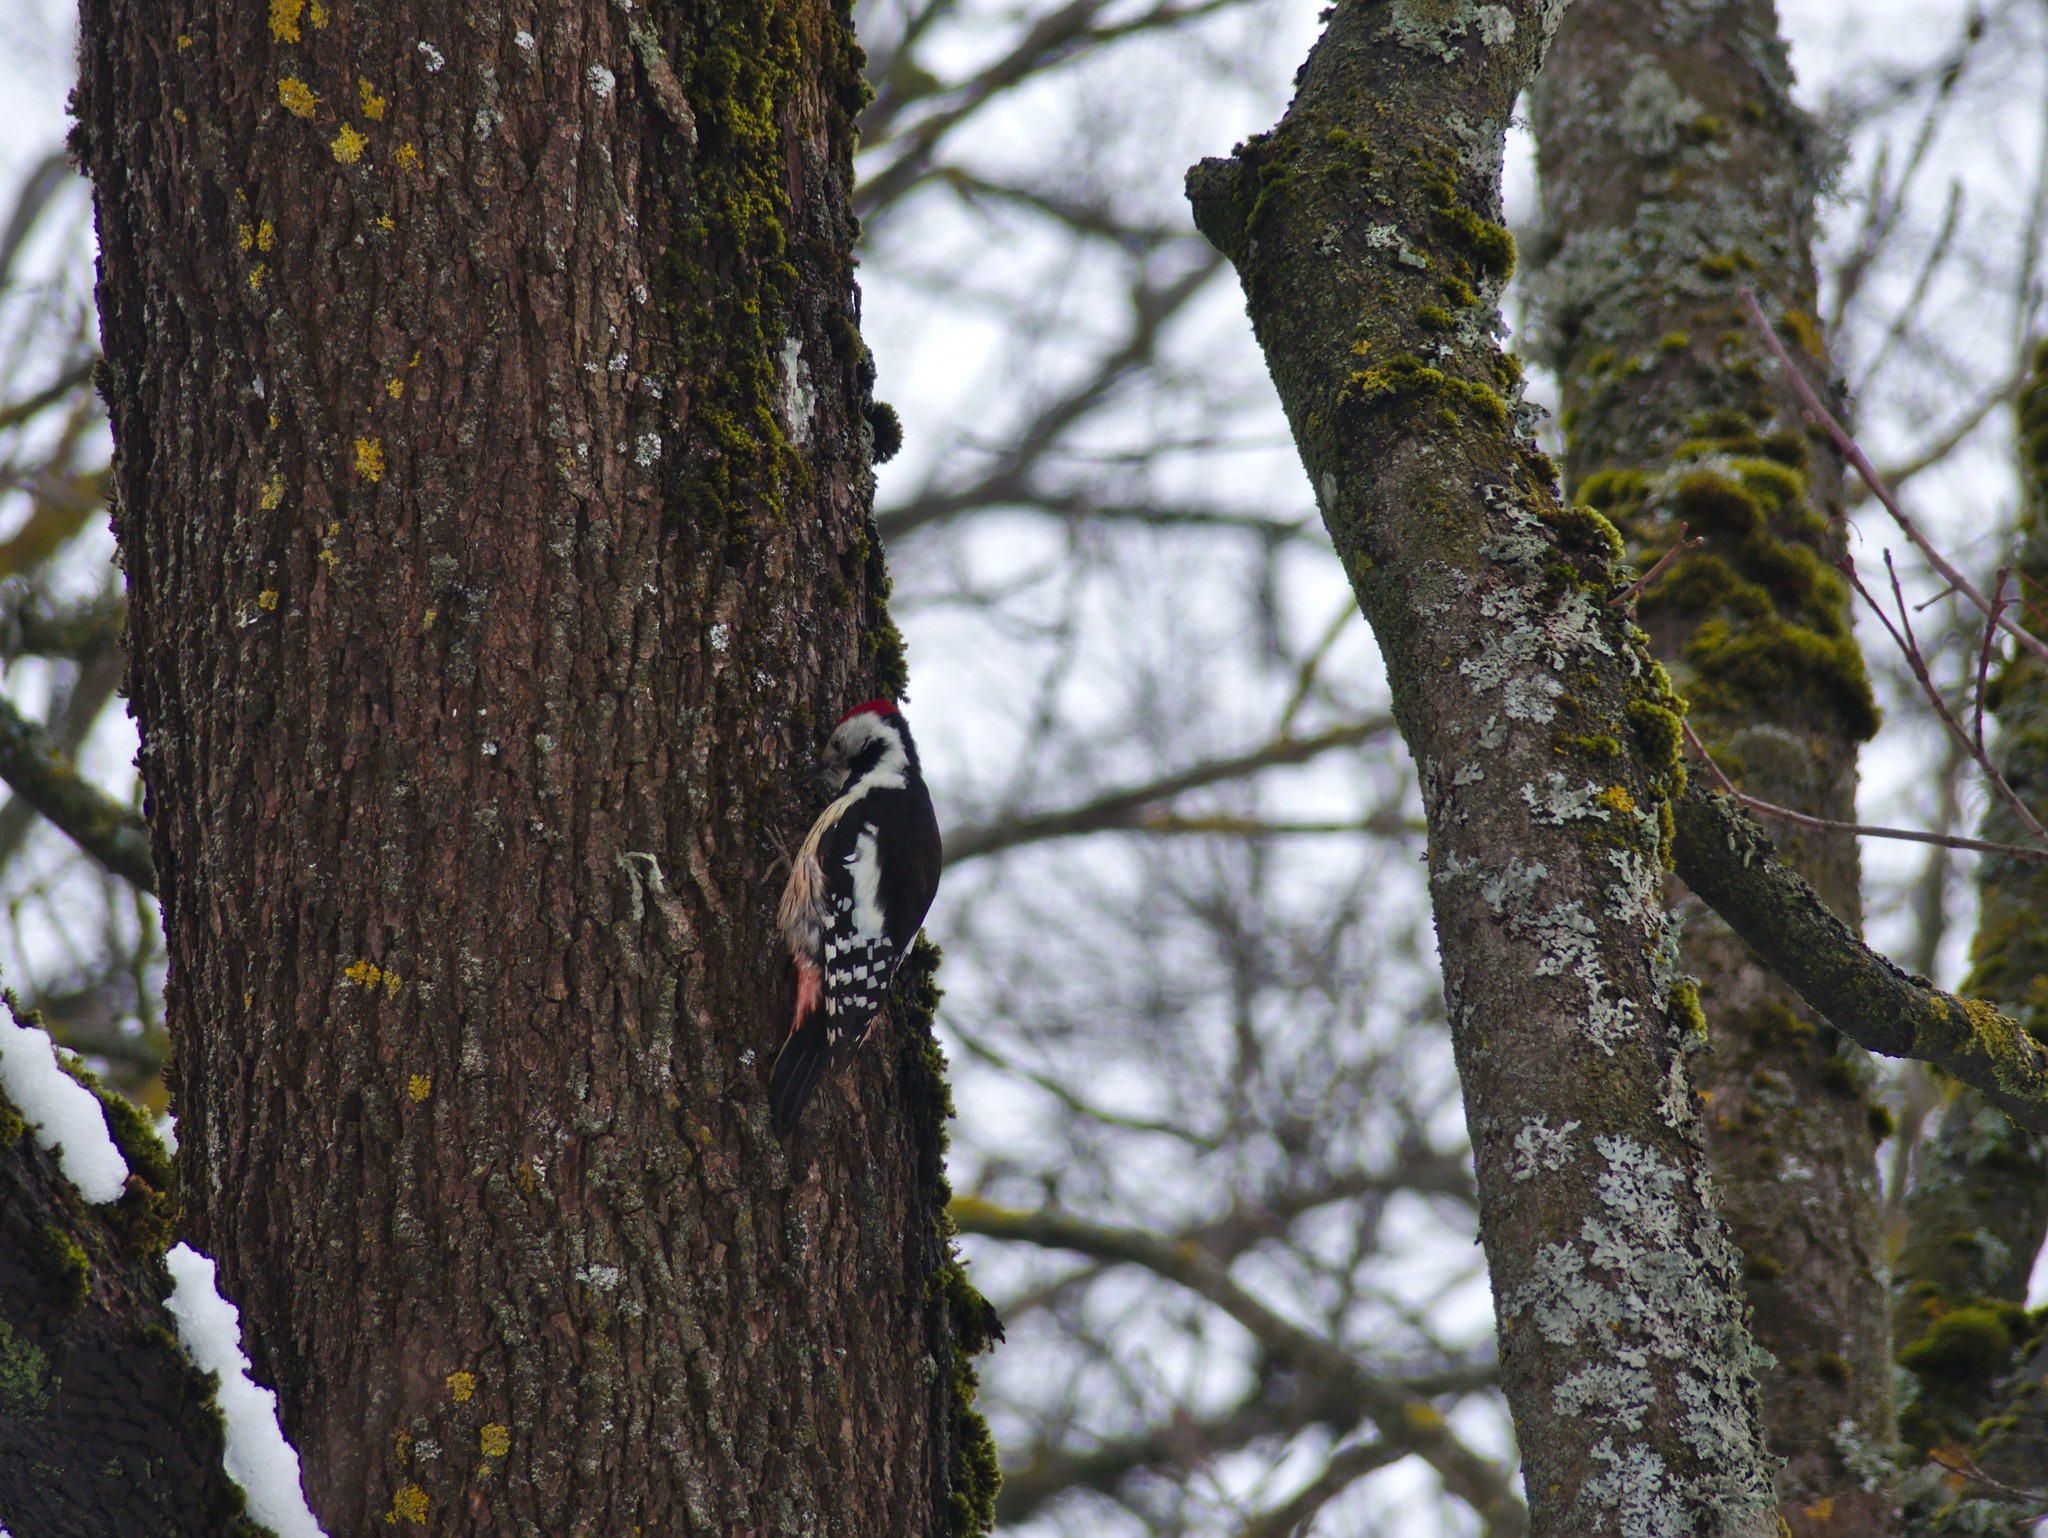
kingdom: Animalia
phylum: Chordata
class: Aves
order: Piciformes
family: Picidae
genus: Dendrocoptes
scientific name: Dendrocoptes medius
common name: Middle spotted woodpecker
